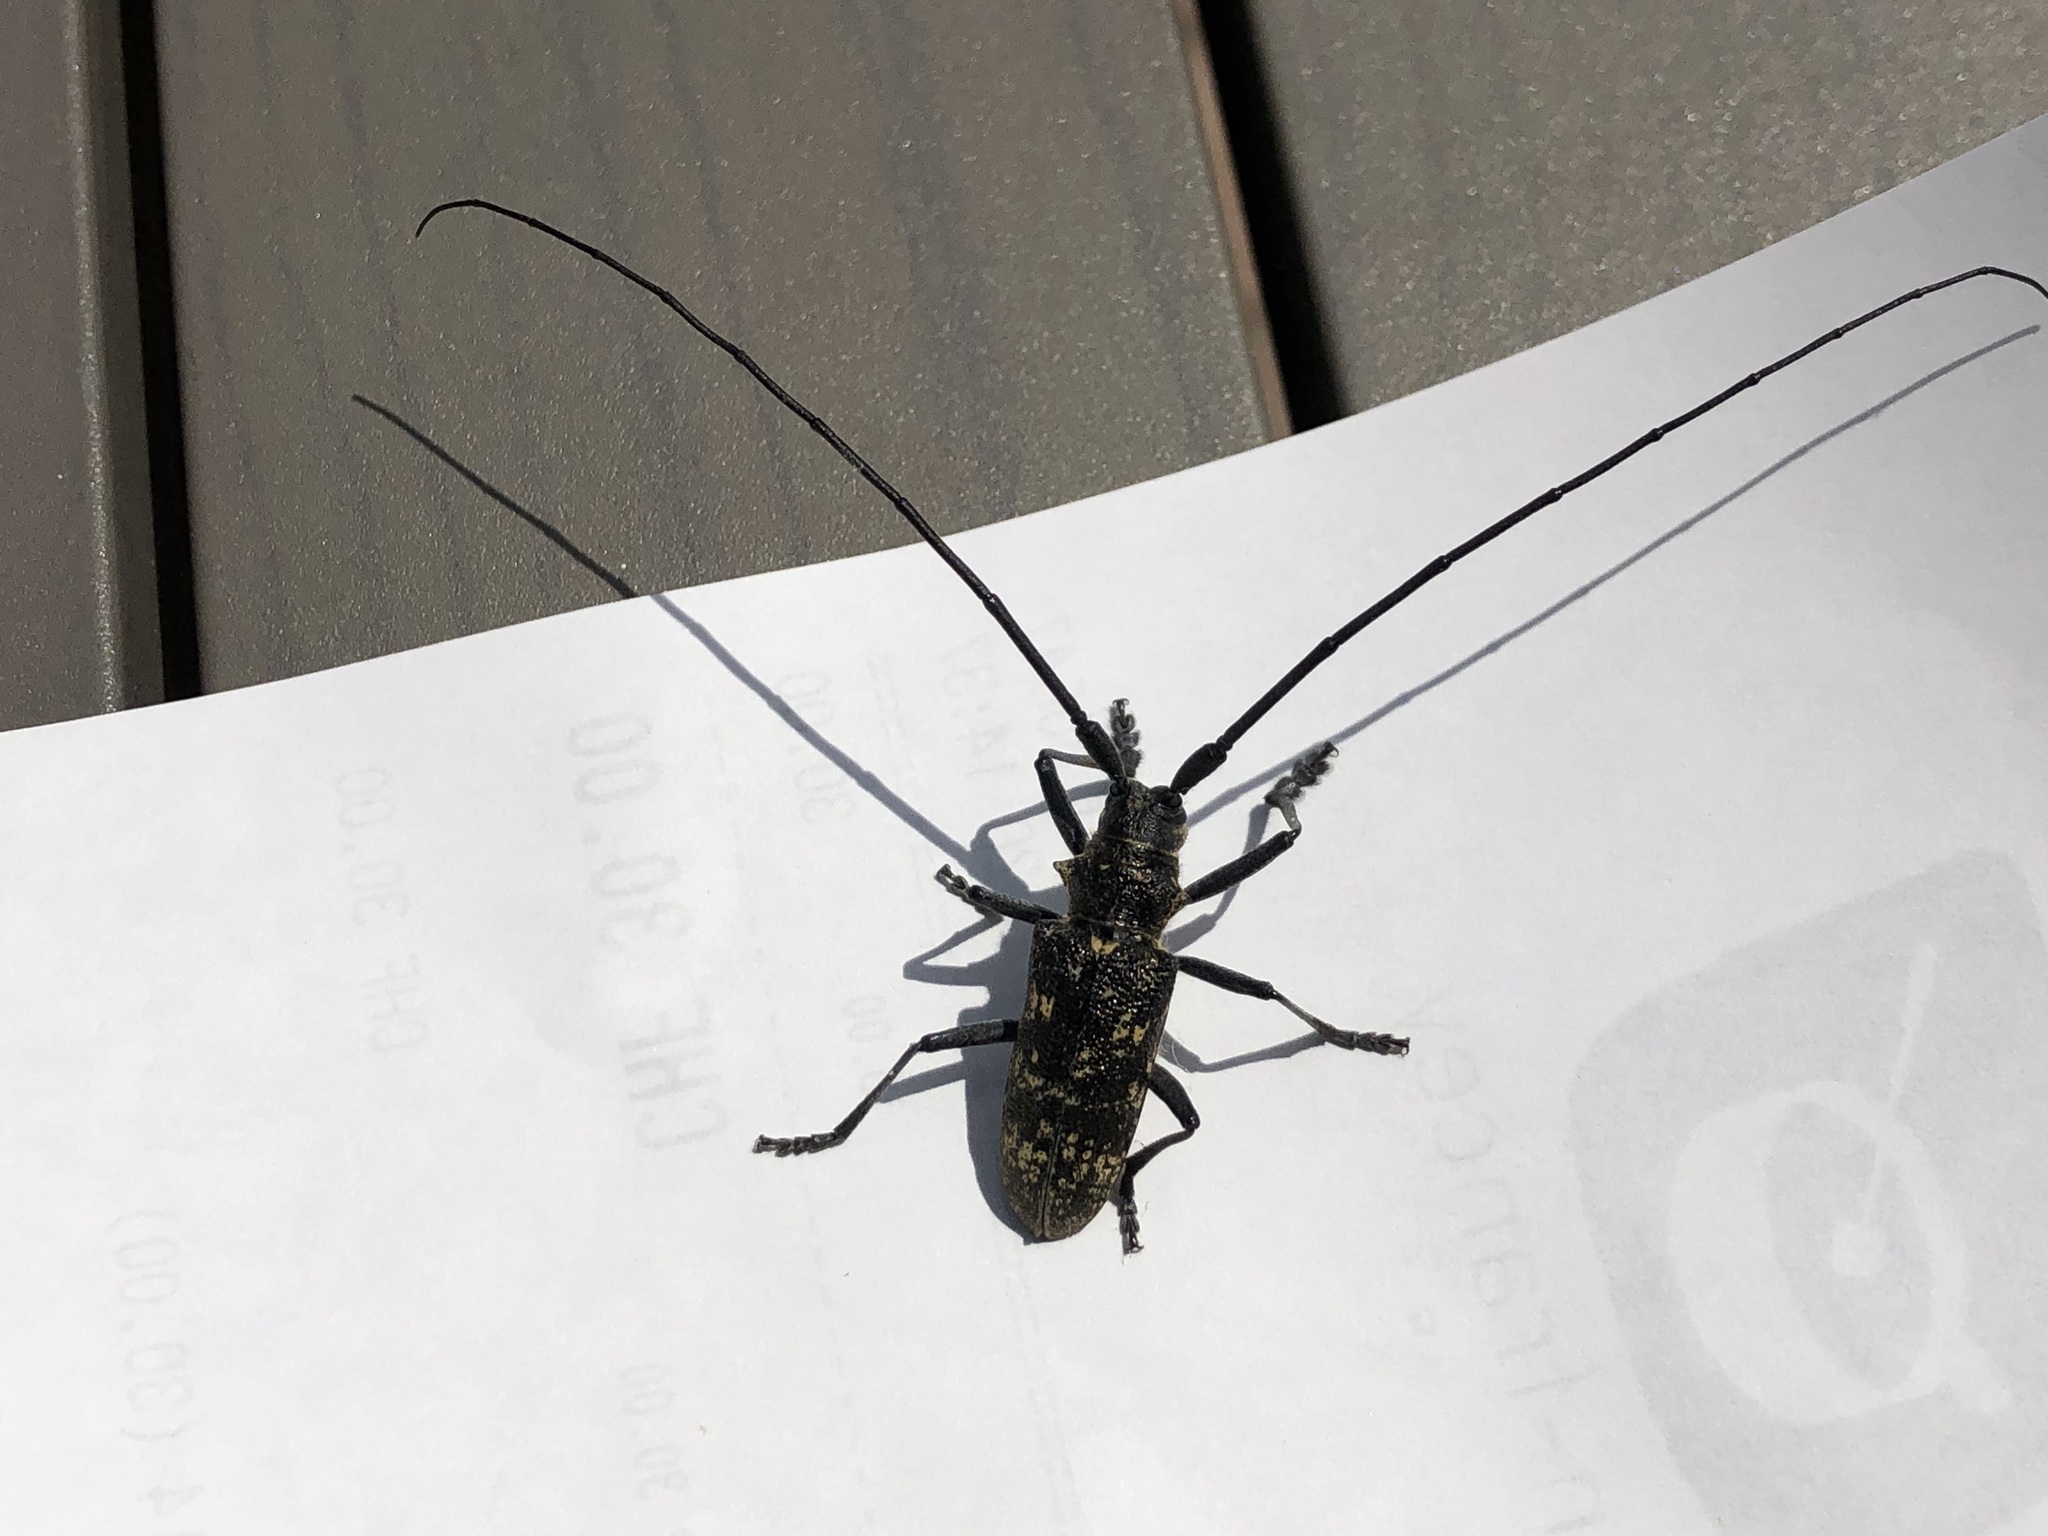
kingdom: Animalia
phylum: Arthropoda
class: Insecta
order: Coleoptera
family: Cerambycidae
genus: Monochamus
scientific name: Monochamus sutor
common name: Pine sawyer
